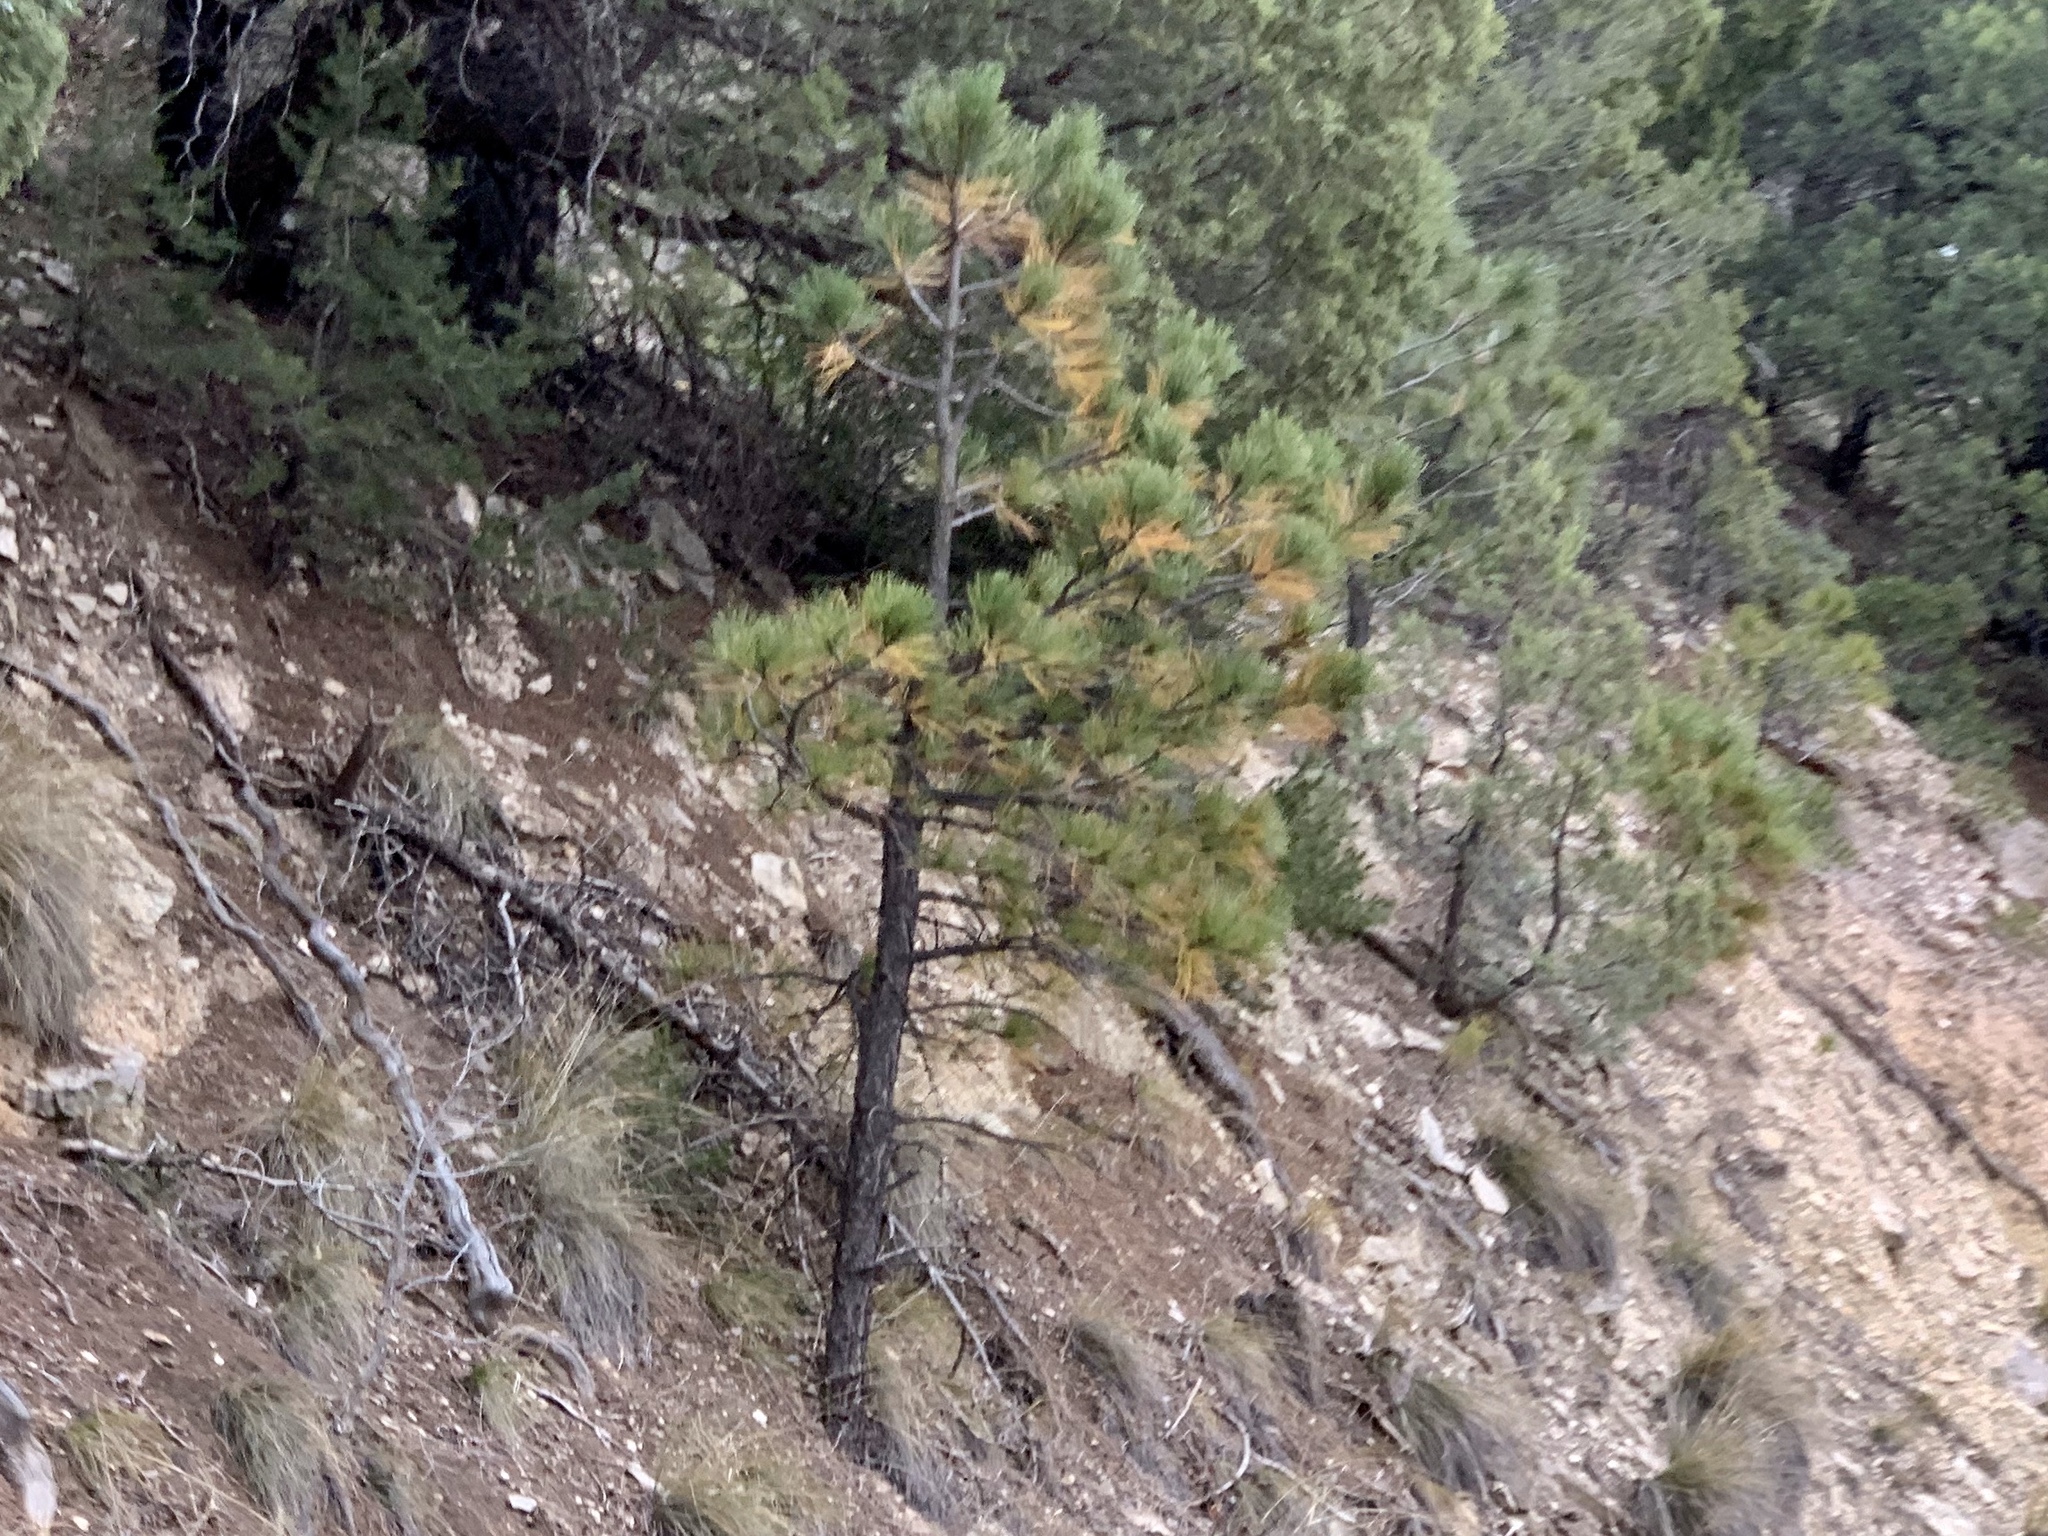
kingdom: Plantae
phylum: Tracheophyta
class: Pinopsida
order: Pinales
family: Pinaceae
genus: Pinus
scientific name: Pinus ponderosa
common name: Western yellow-pine
